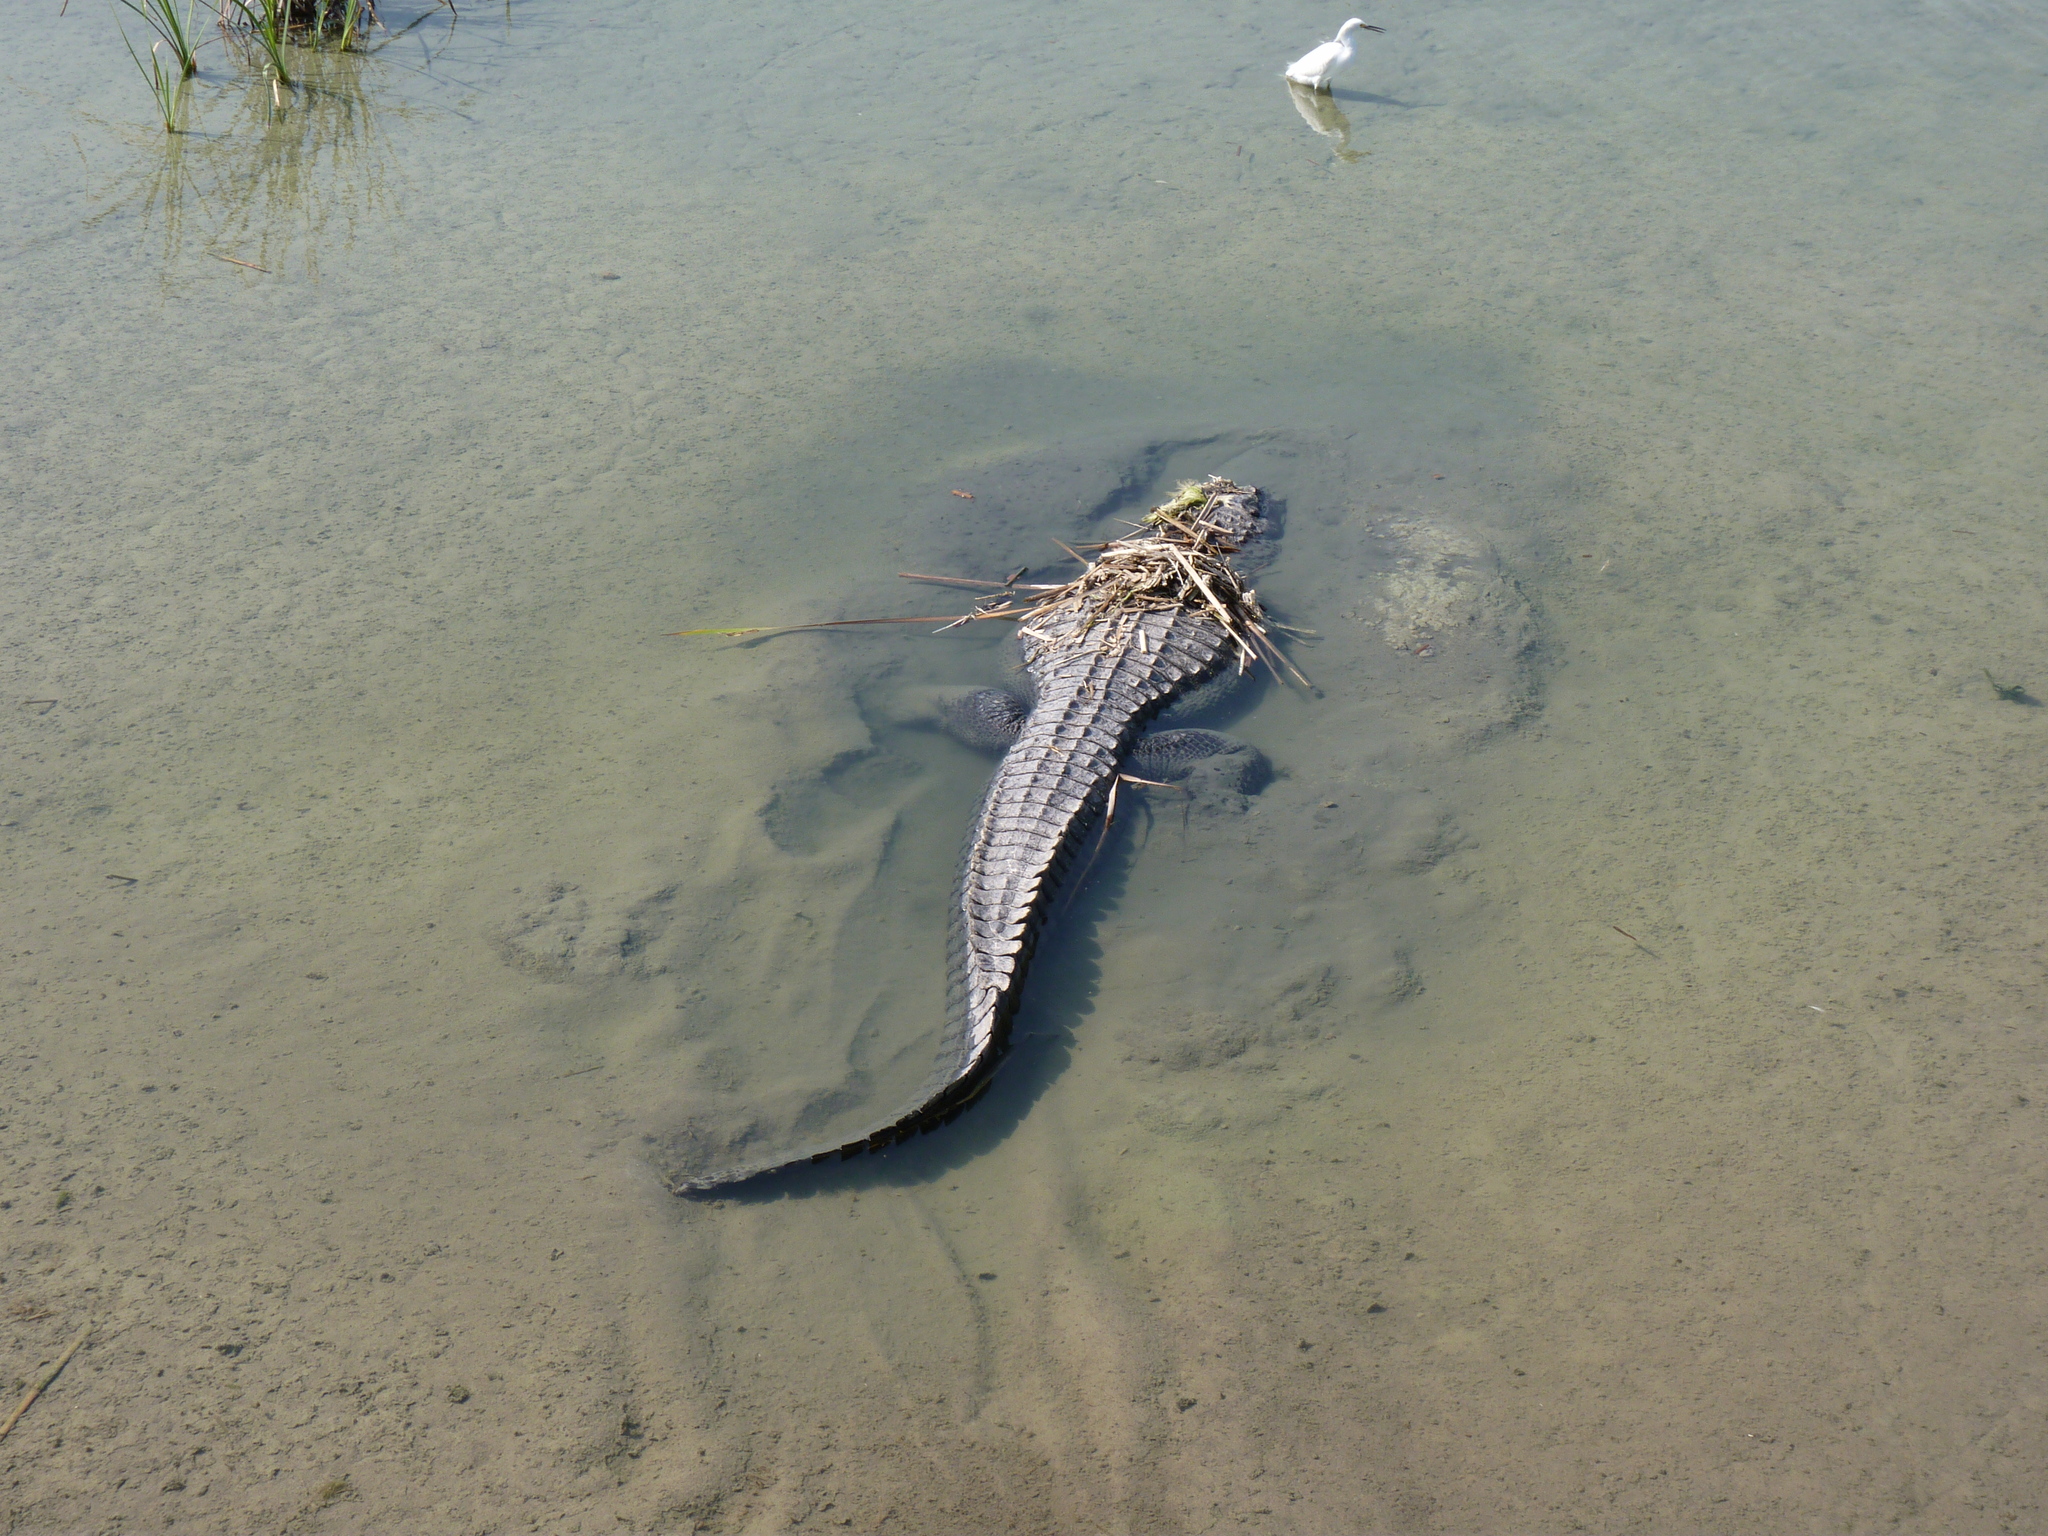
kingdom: Animalia
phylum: Chordata
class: Crocodylia
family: Alligatoridae
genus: Alligator
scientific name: Alligator mississippiensis
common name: American alligator
